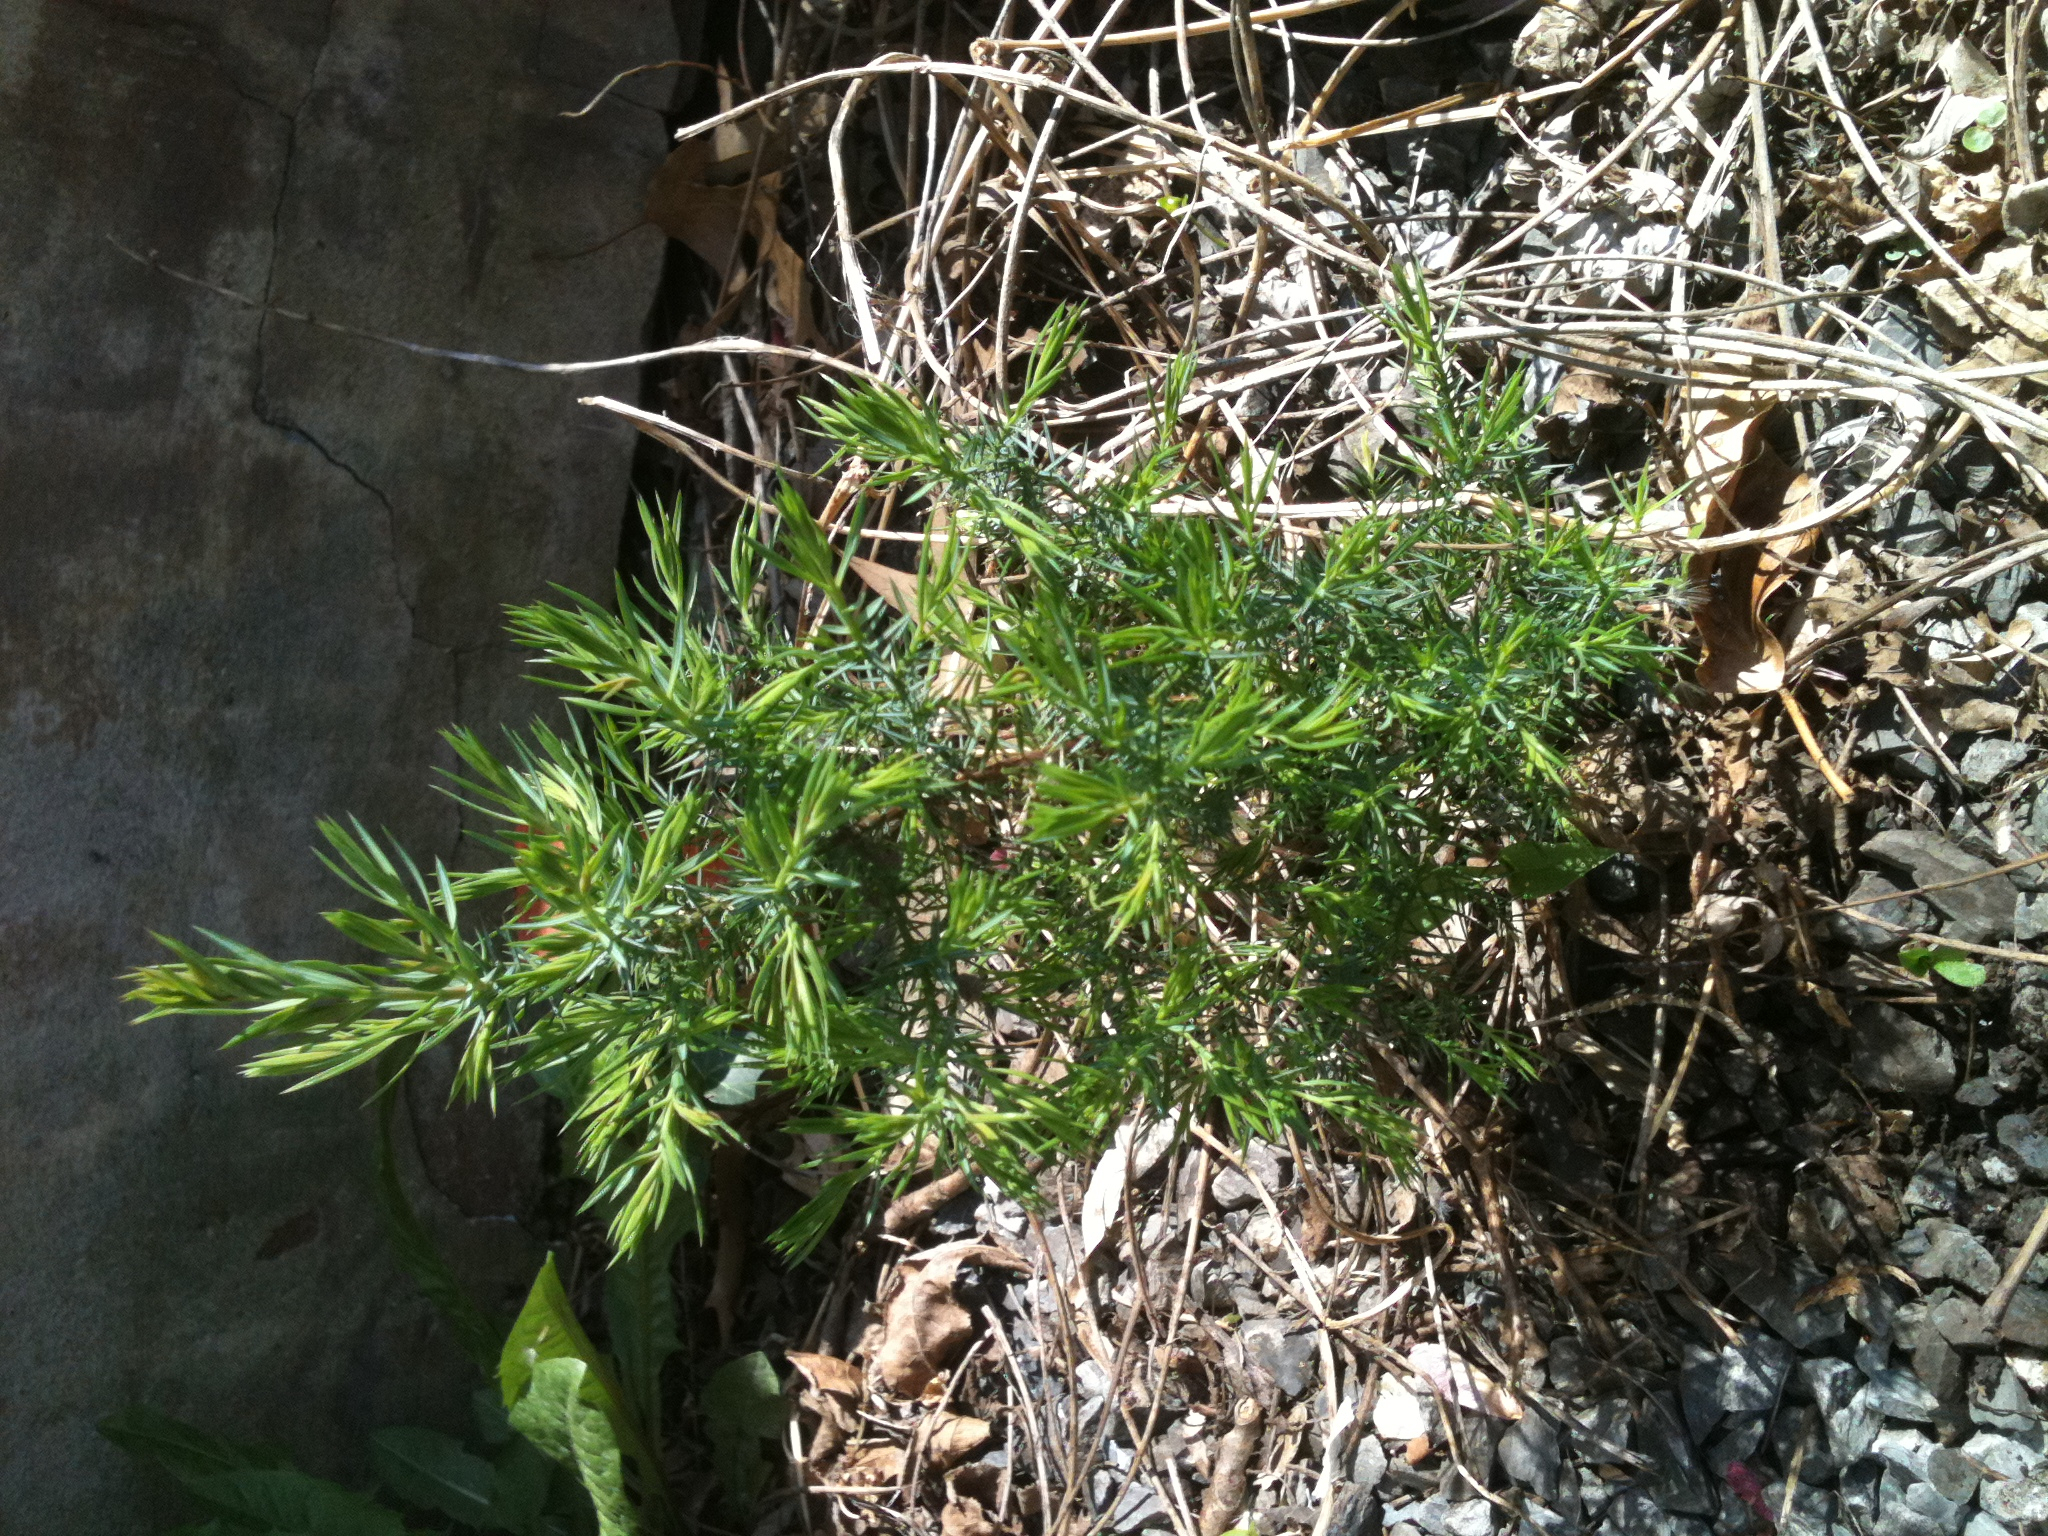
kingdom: Plantae
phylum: Tracheophyta
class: Pinopsida
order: Pinales
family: Cupressaceae
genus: Juniperus
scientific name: Juniperus virginiana
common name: Red juniper
